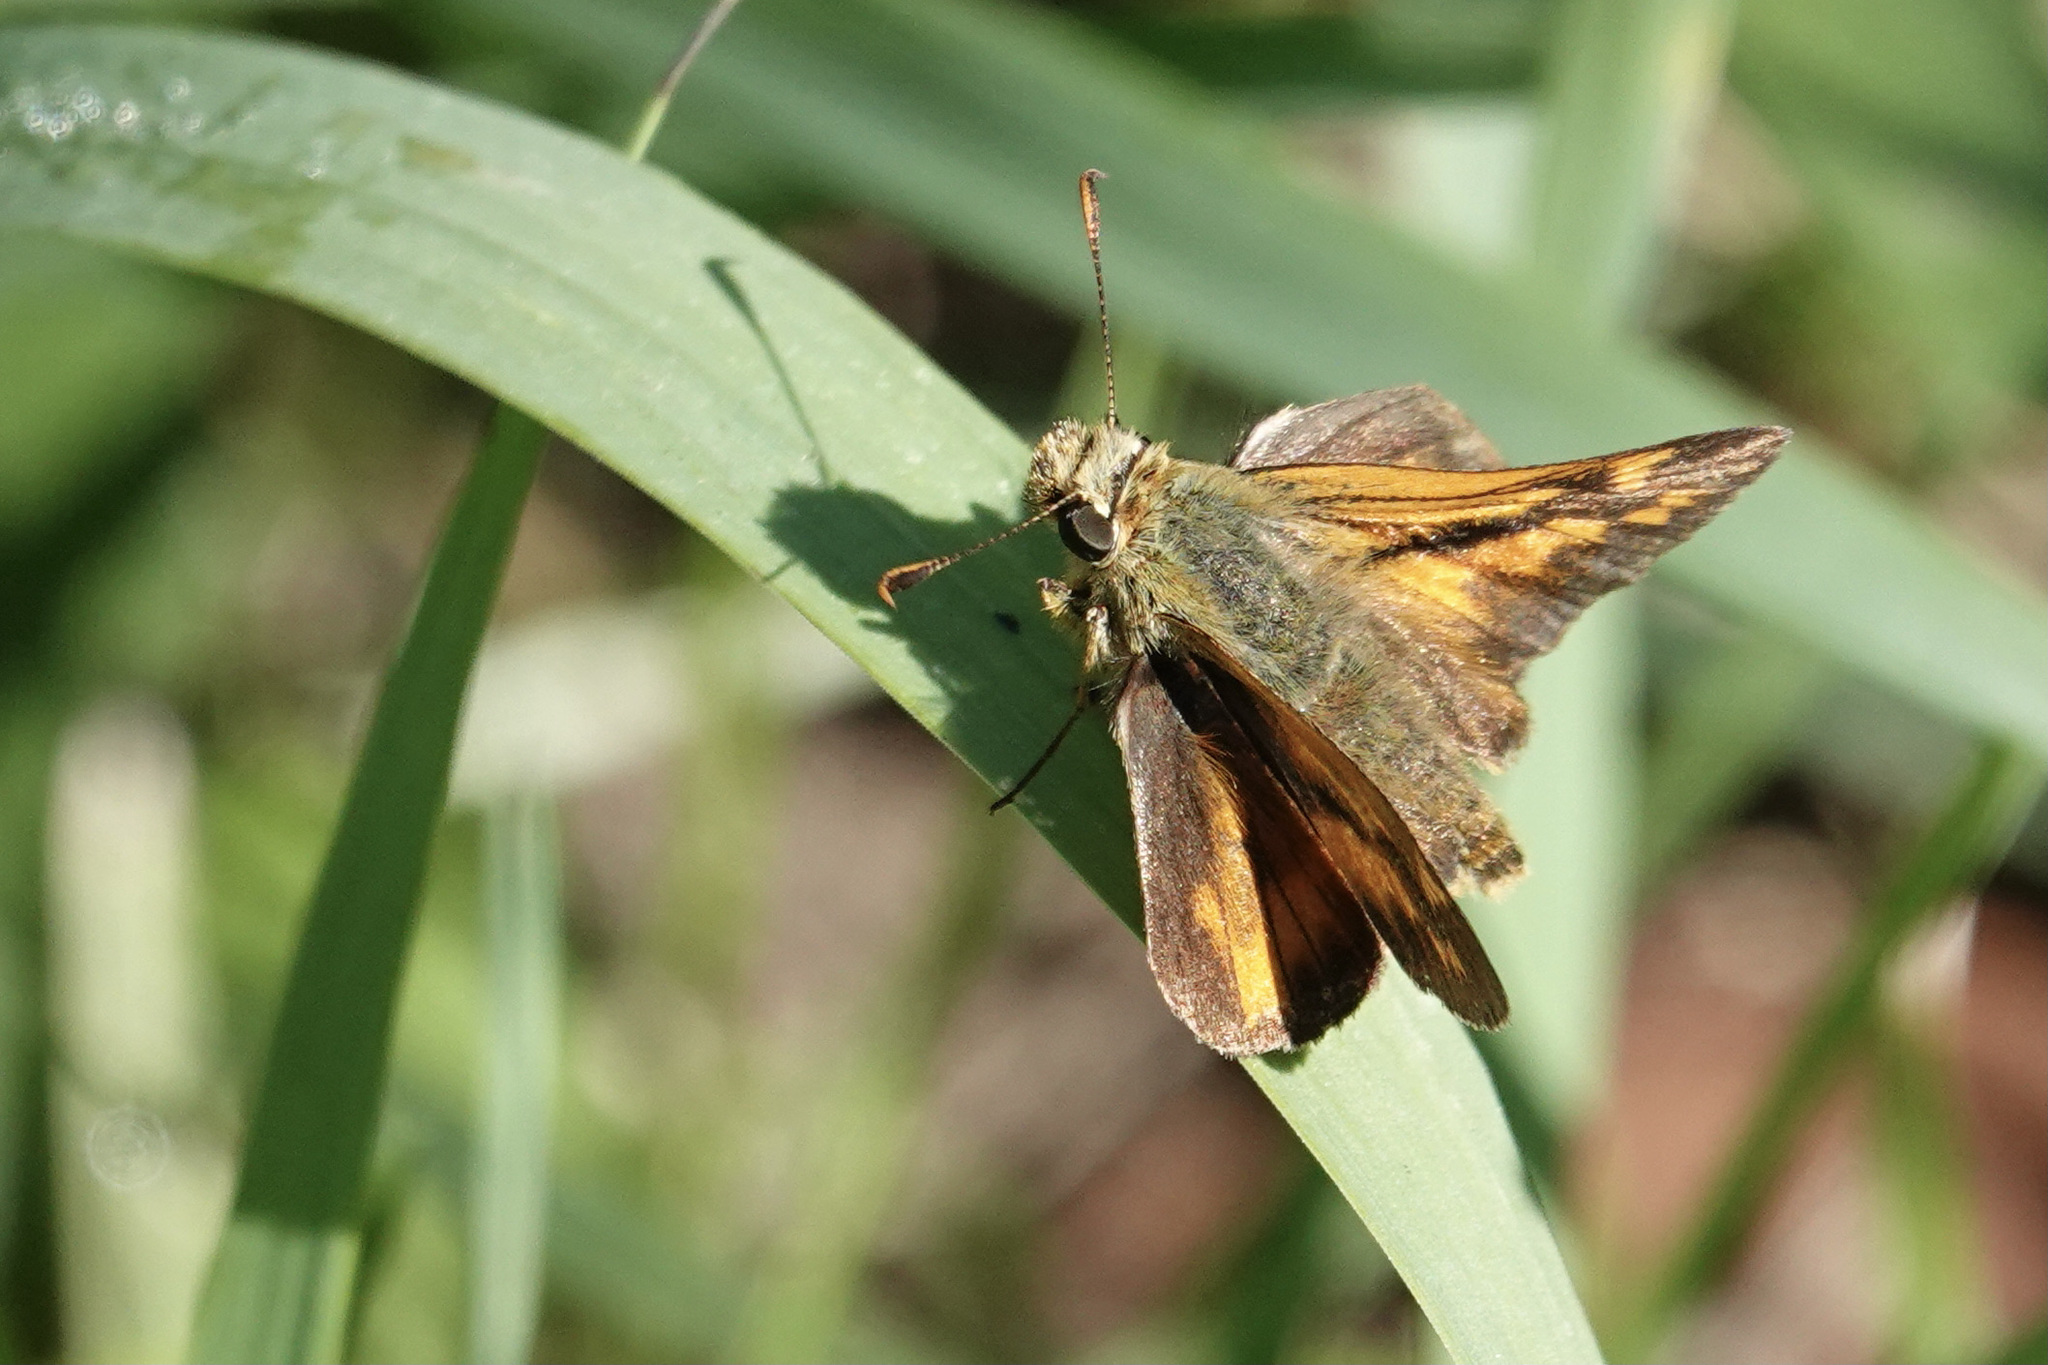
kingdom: Animalia
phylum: Arthropoda
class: Insecta
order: Lepidoptera
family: Hesperiidae
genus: Ochlodes
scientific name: Ochlodes sylvanoides
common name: Woodland skipper
